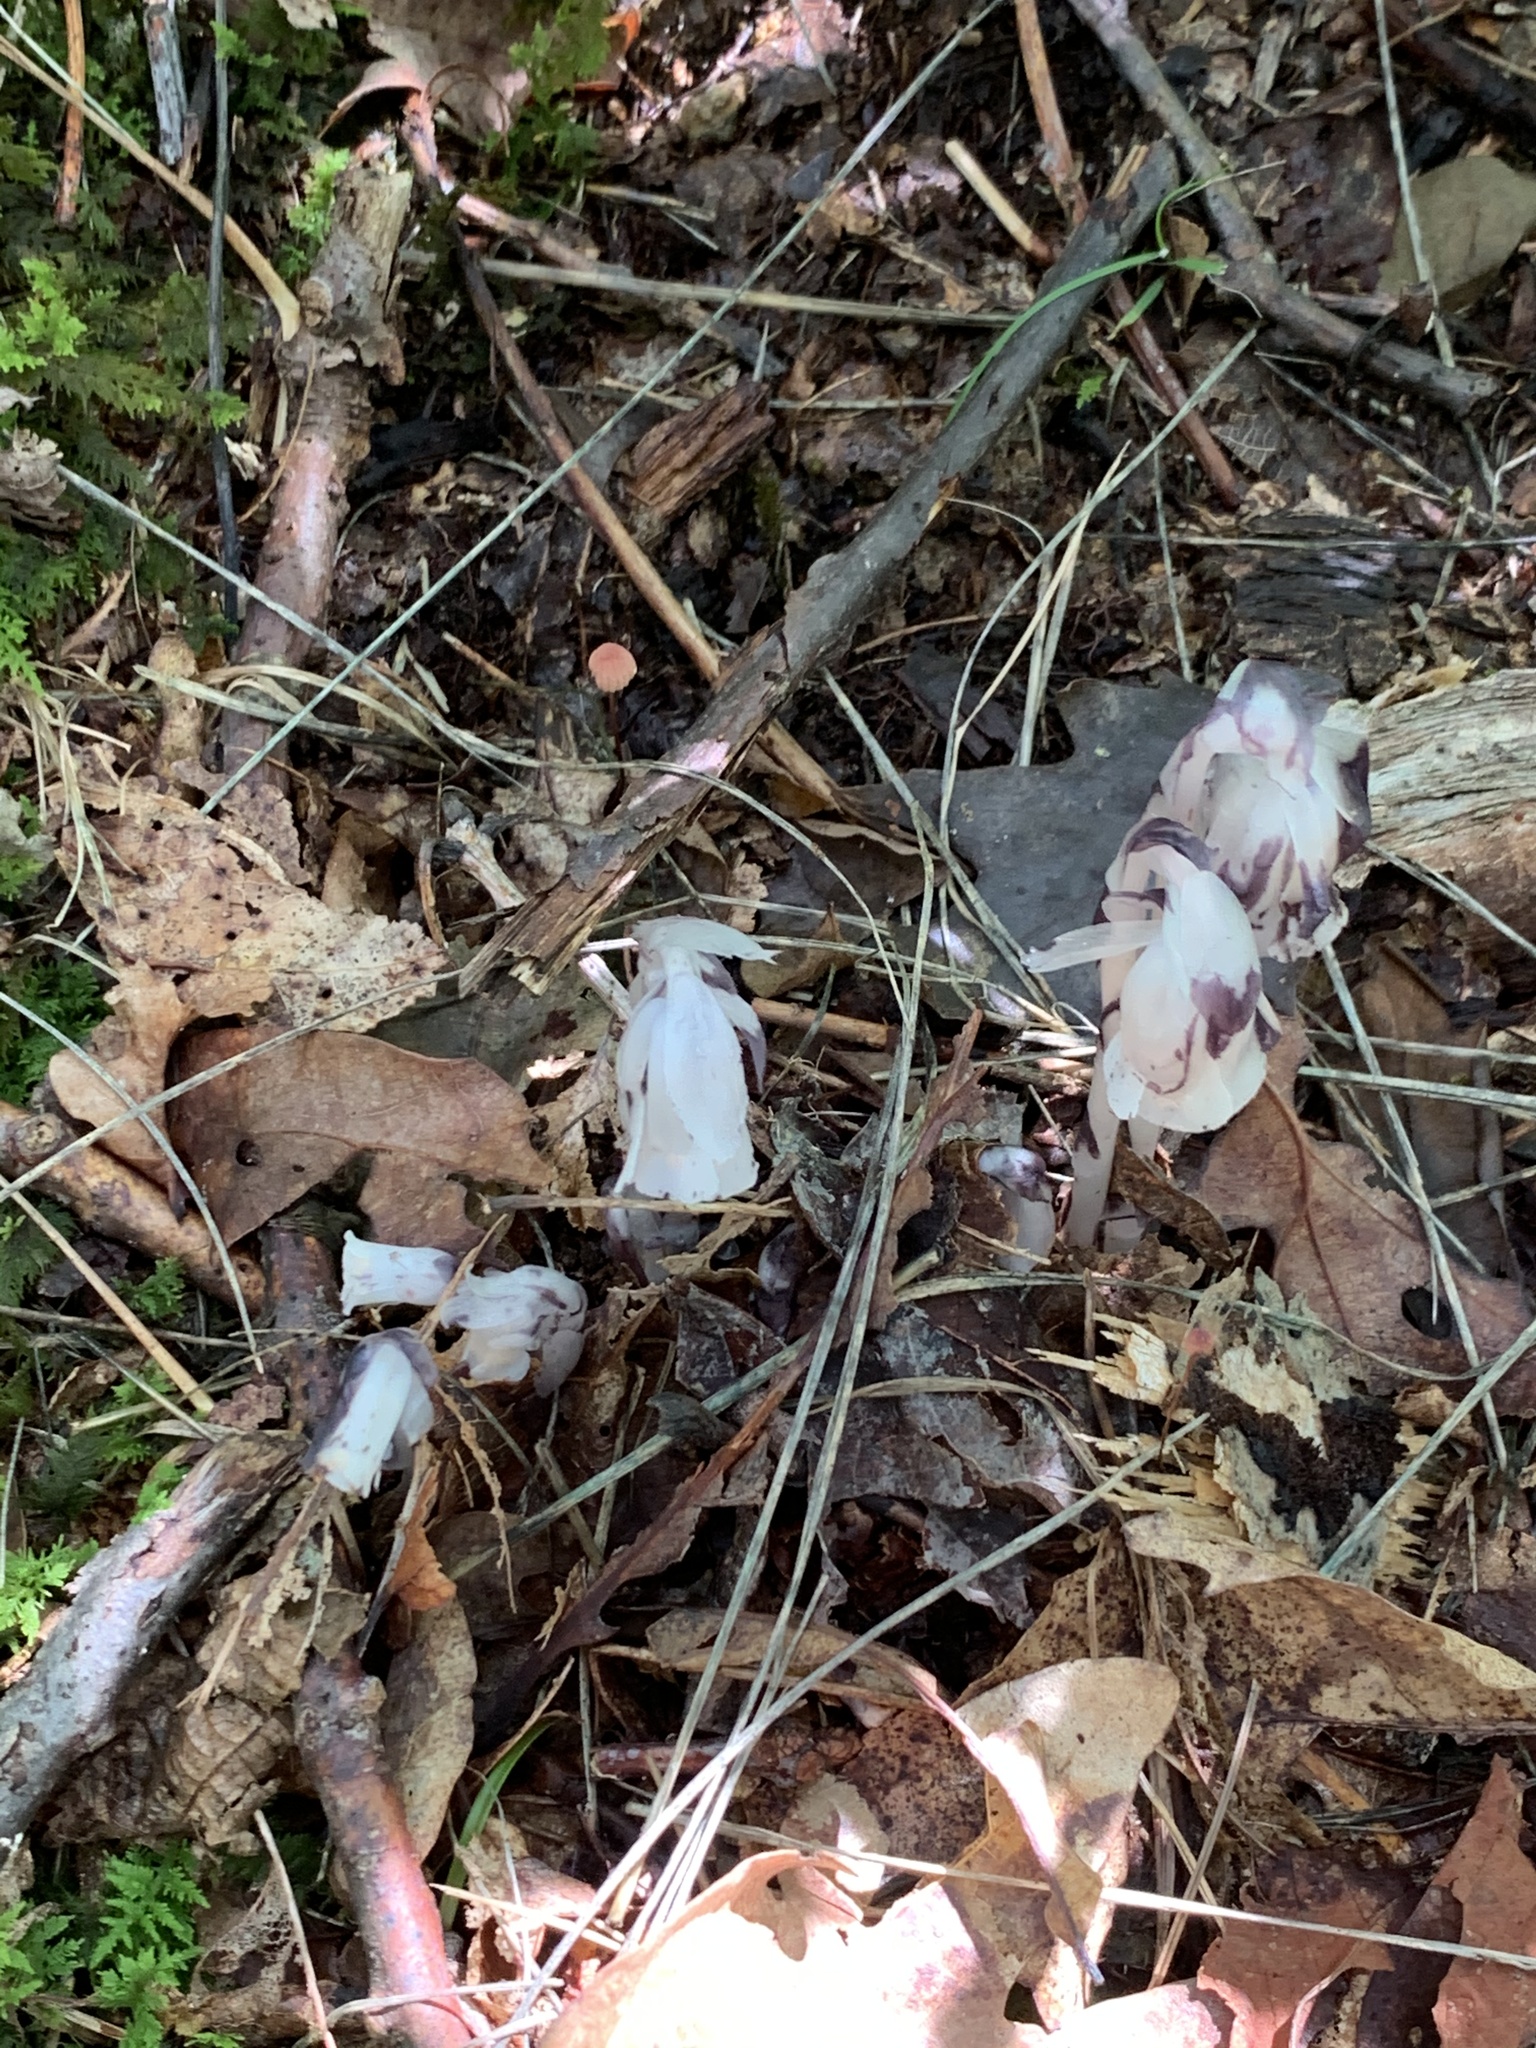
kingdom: Plantae
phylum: Tracheophyta
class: Magnoliopsida
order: Ericales
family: Ericaceae
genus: Monotropa
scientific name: Monotropa uniflora
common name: Convulsion root
